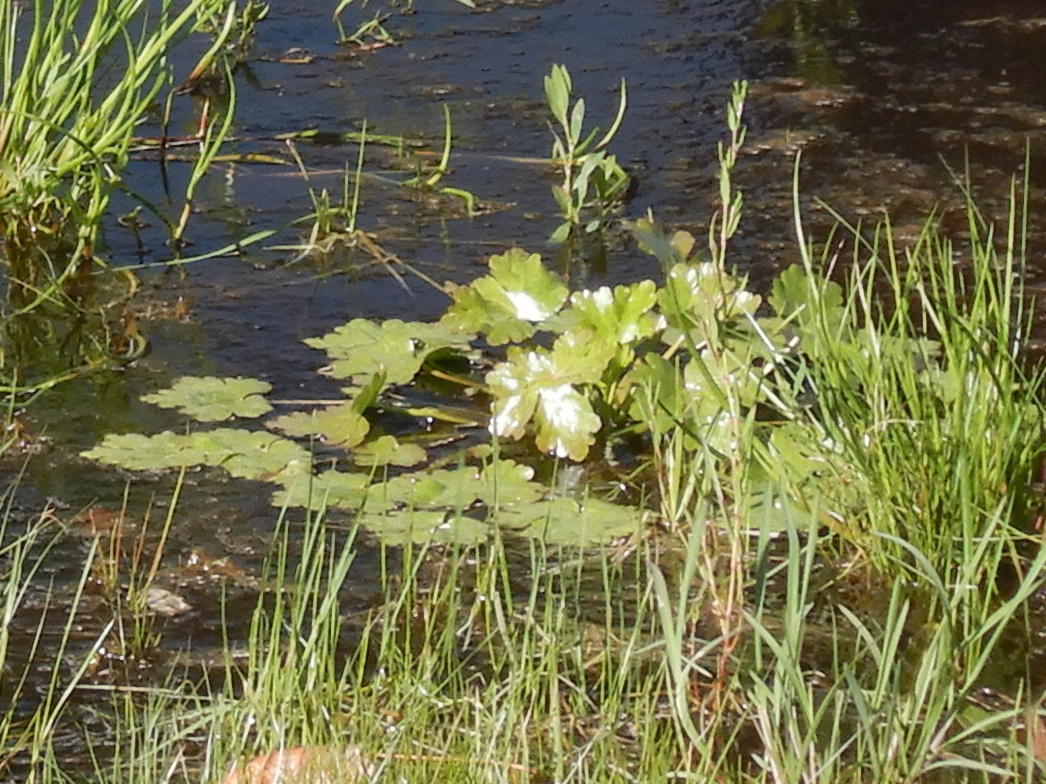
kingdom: Plantae
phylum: Tracheophyta
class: Magnoliopsida
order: Ranunculales
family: Ranunculaceae
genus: Ranunculus
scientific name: Ranunculus sceleratus
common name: Celery-leaved buttercup
